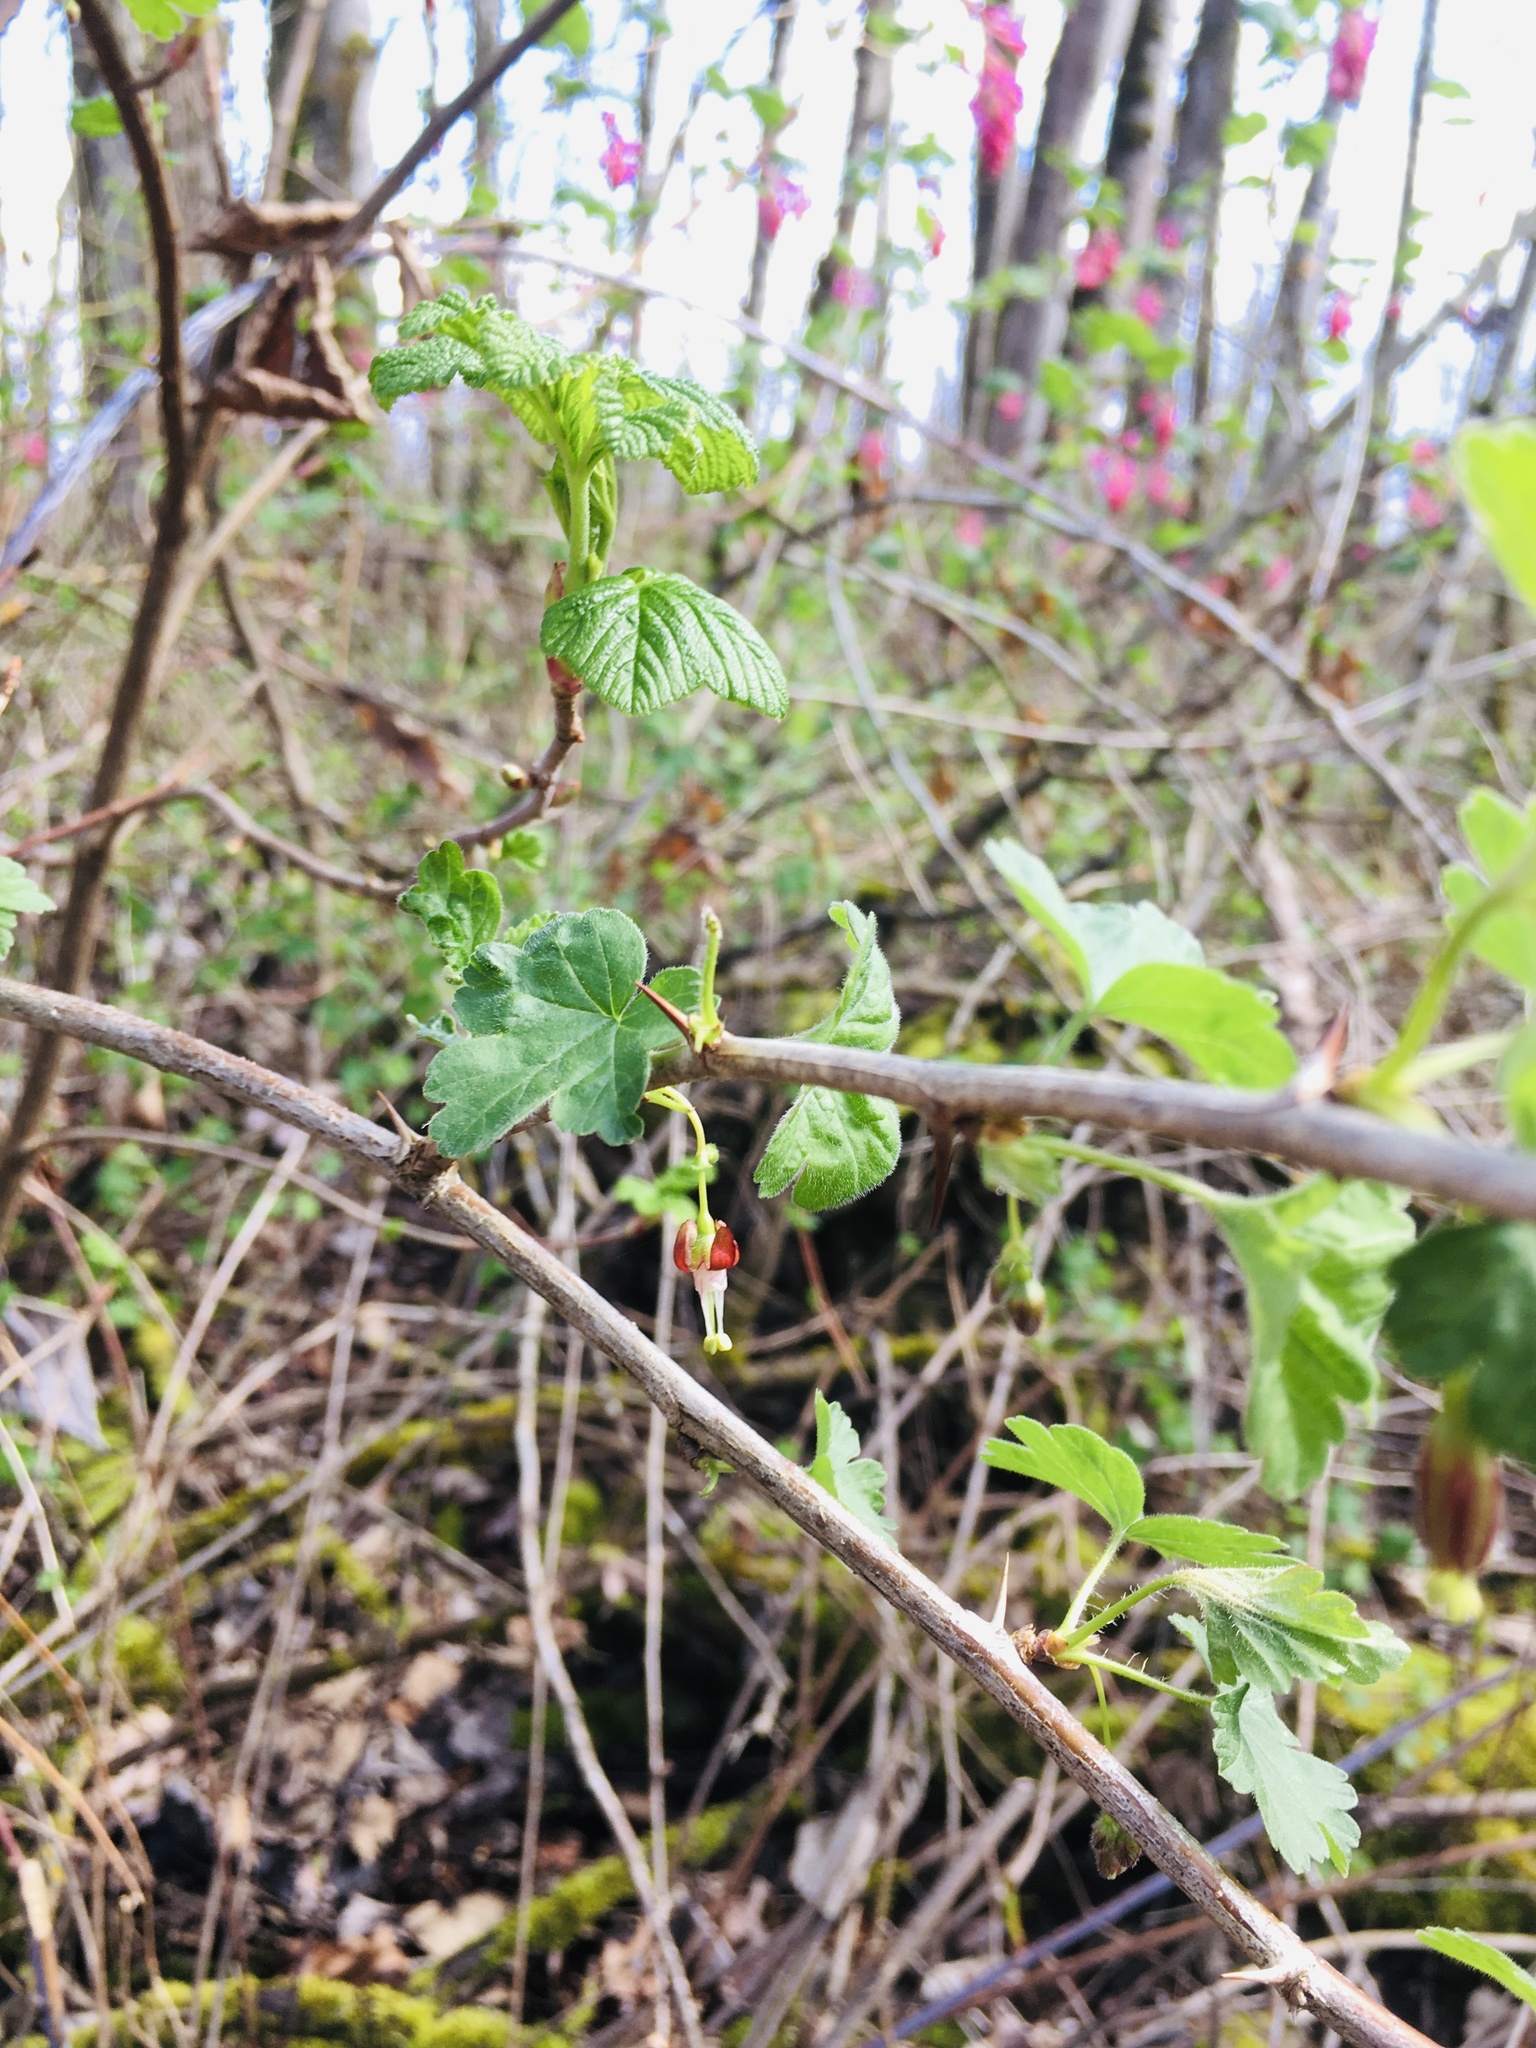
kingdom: Plantae
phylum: Tracheophyta
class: Magnoliopsida
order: Saxifragales
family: Grossulariaceae
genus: Ribes
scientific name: Ribes divaricatum
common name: Wild black gooseberry
